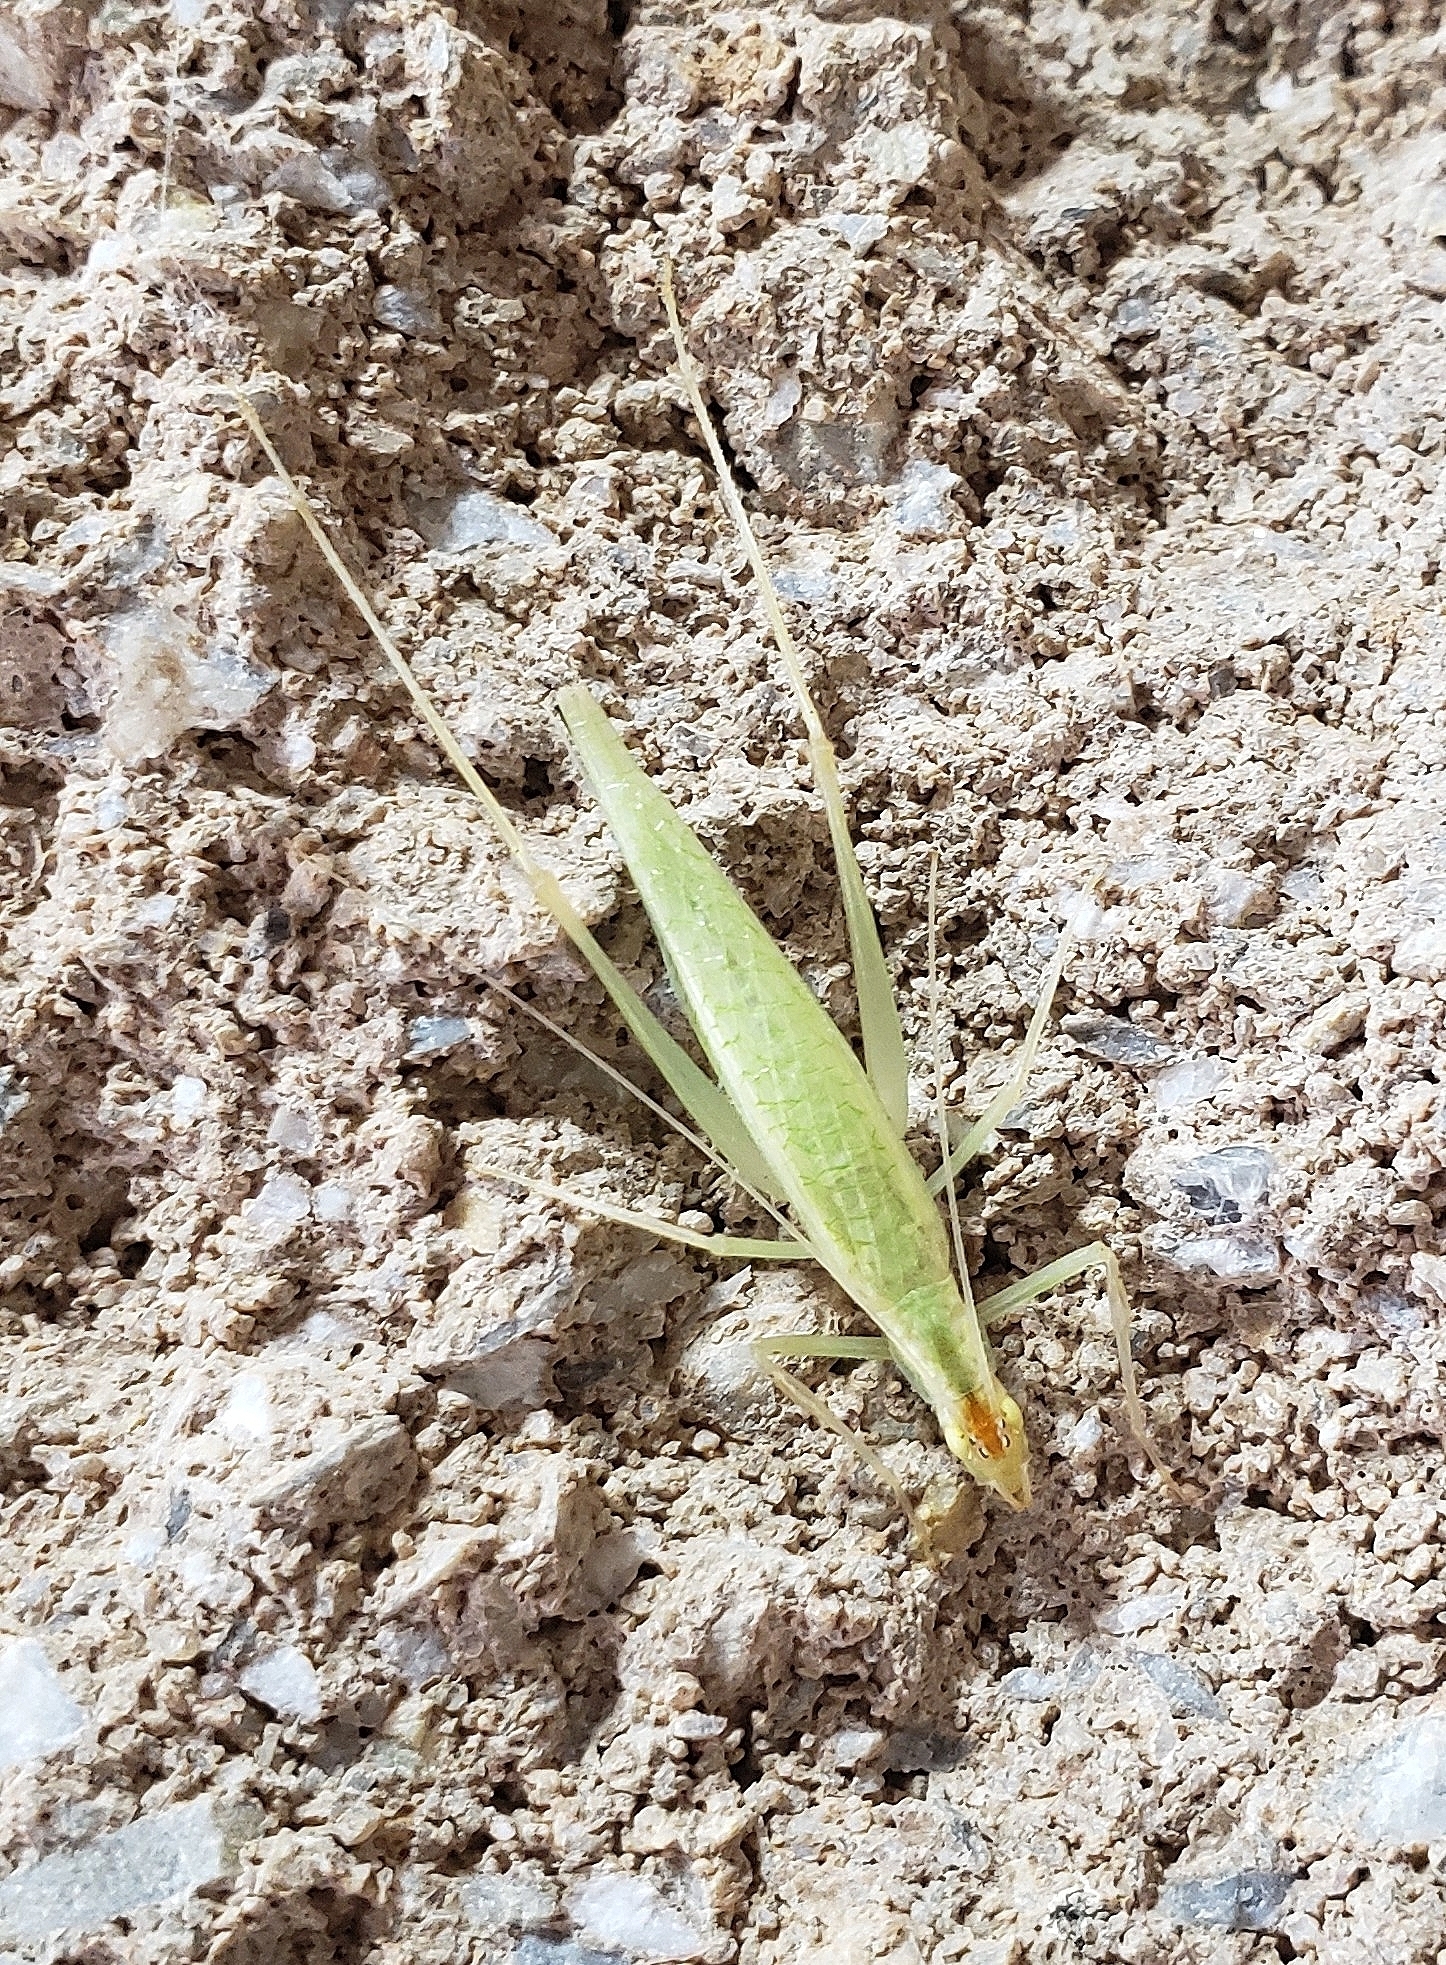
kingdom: Animalia
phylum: Arthropoda
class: Insecta
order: Orthoptera
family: Gryllidae
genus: Oecanthus
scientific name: Oecanthus niveus
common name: Narrow-winged tree cricket
